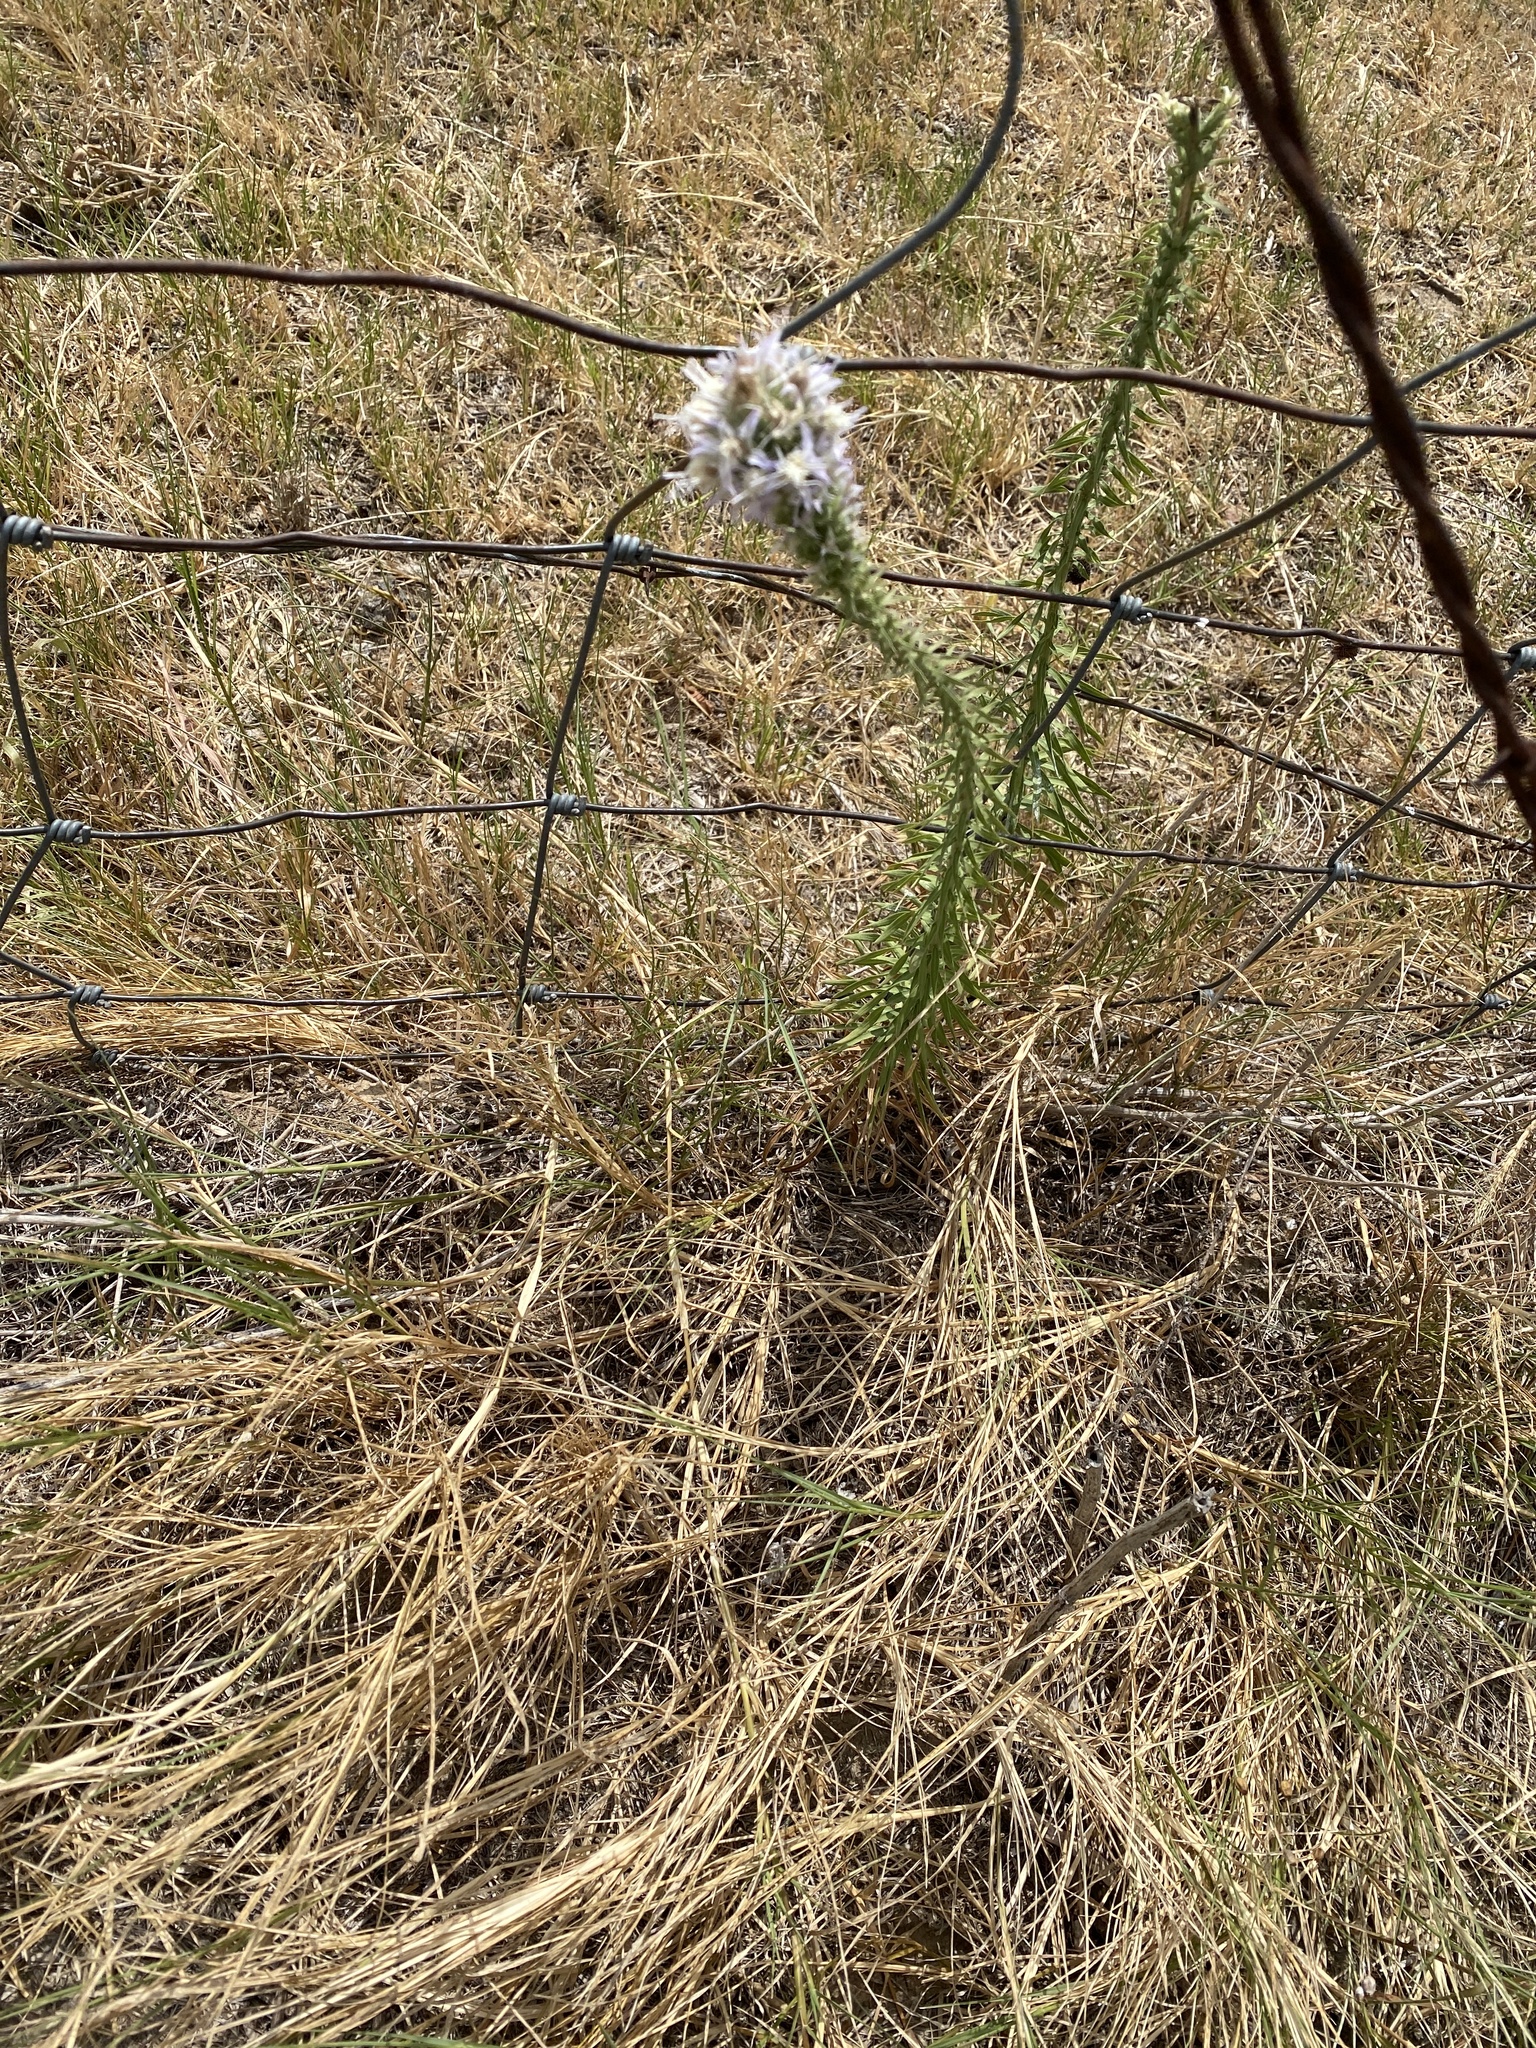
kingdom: Plantae
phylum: Tracheophyta
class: Magnoliopsida
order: Asterales
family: Asteraceae
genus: Liatris
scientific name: Liatris carizzana
